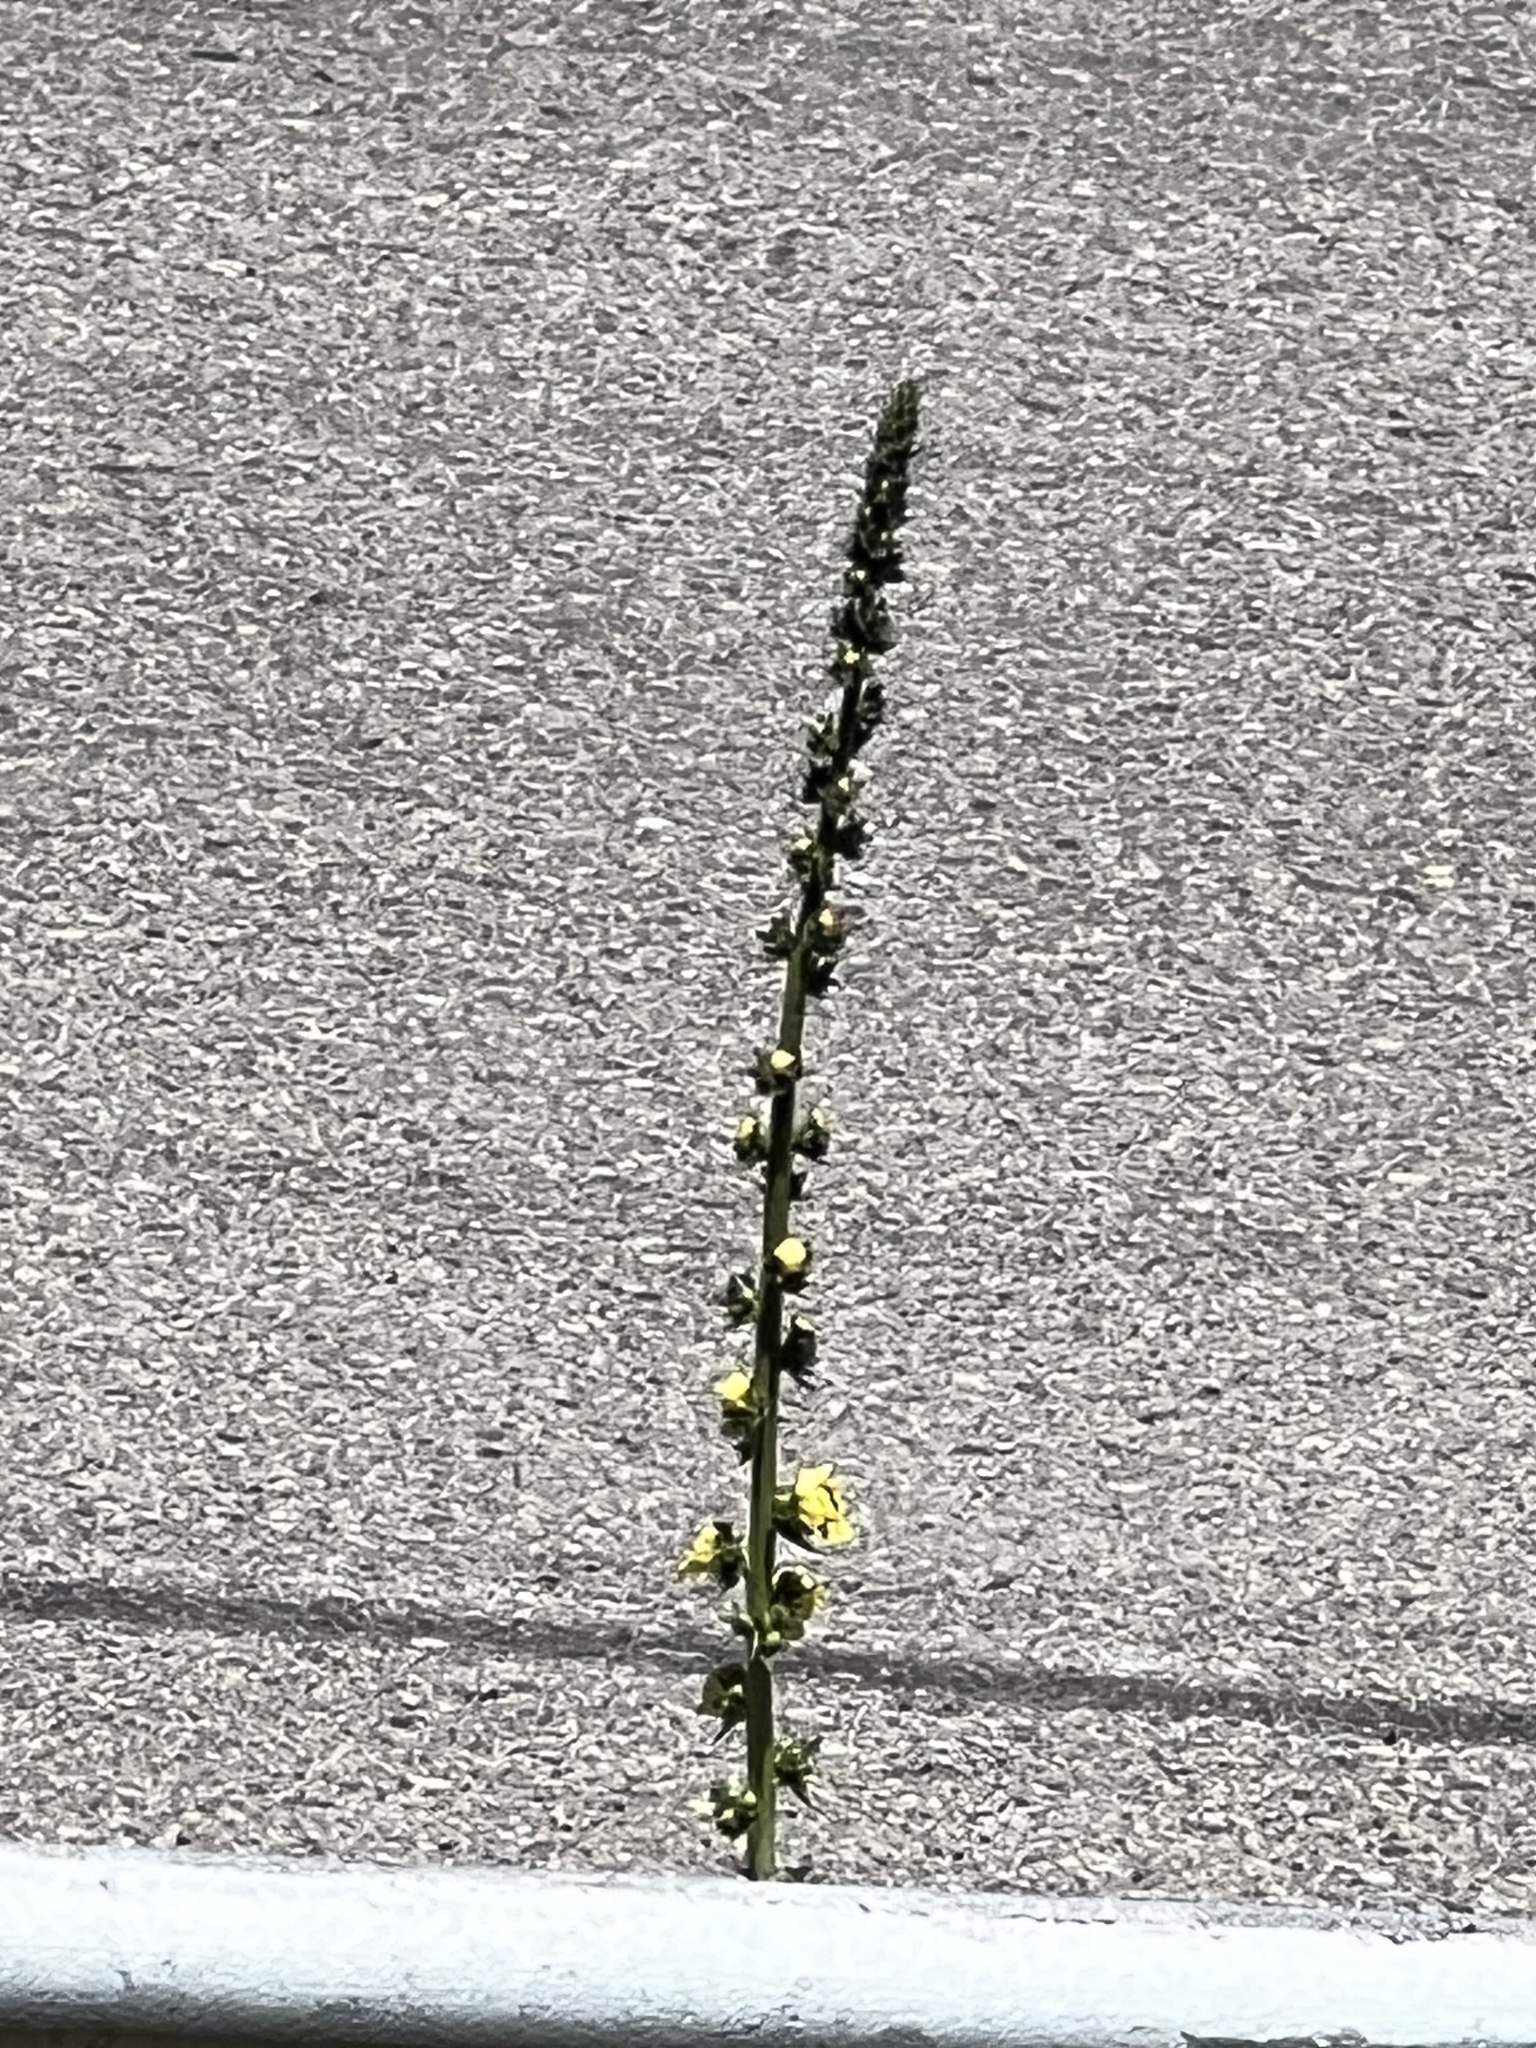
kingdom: Plantae
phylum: Tracheophyta
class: Magnoliopsida
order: Lamiales
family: Scrophulariaceae
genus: Verbascum
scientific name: Verbascum virgatum
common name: Twiggy mullein
